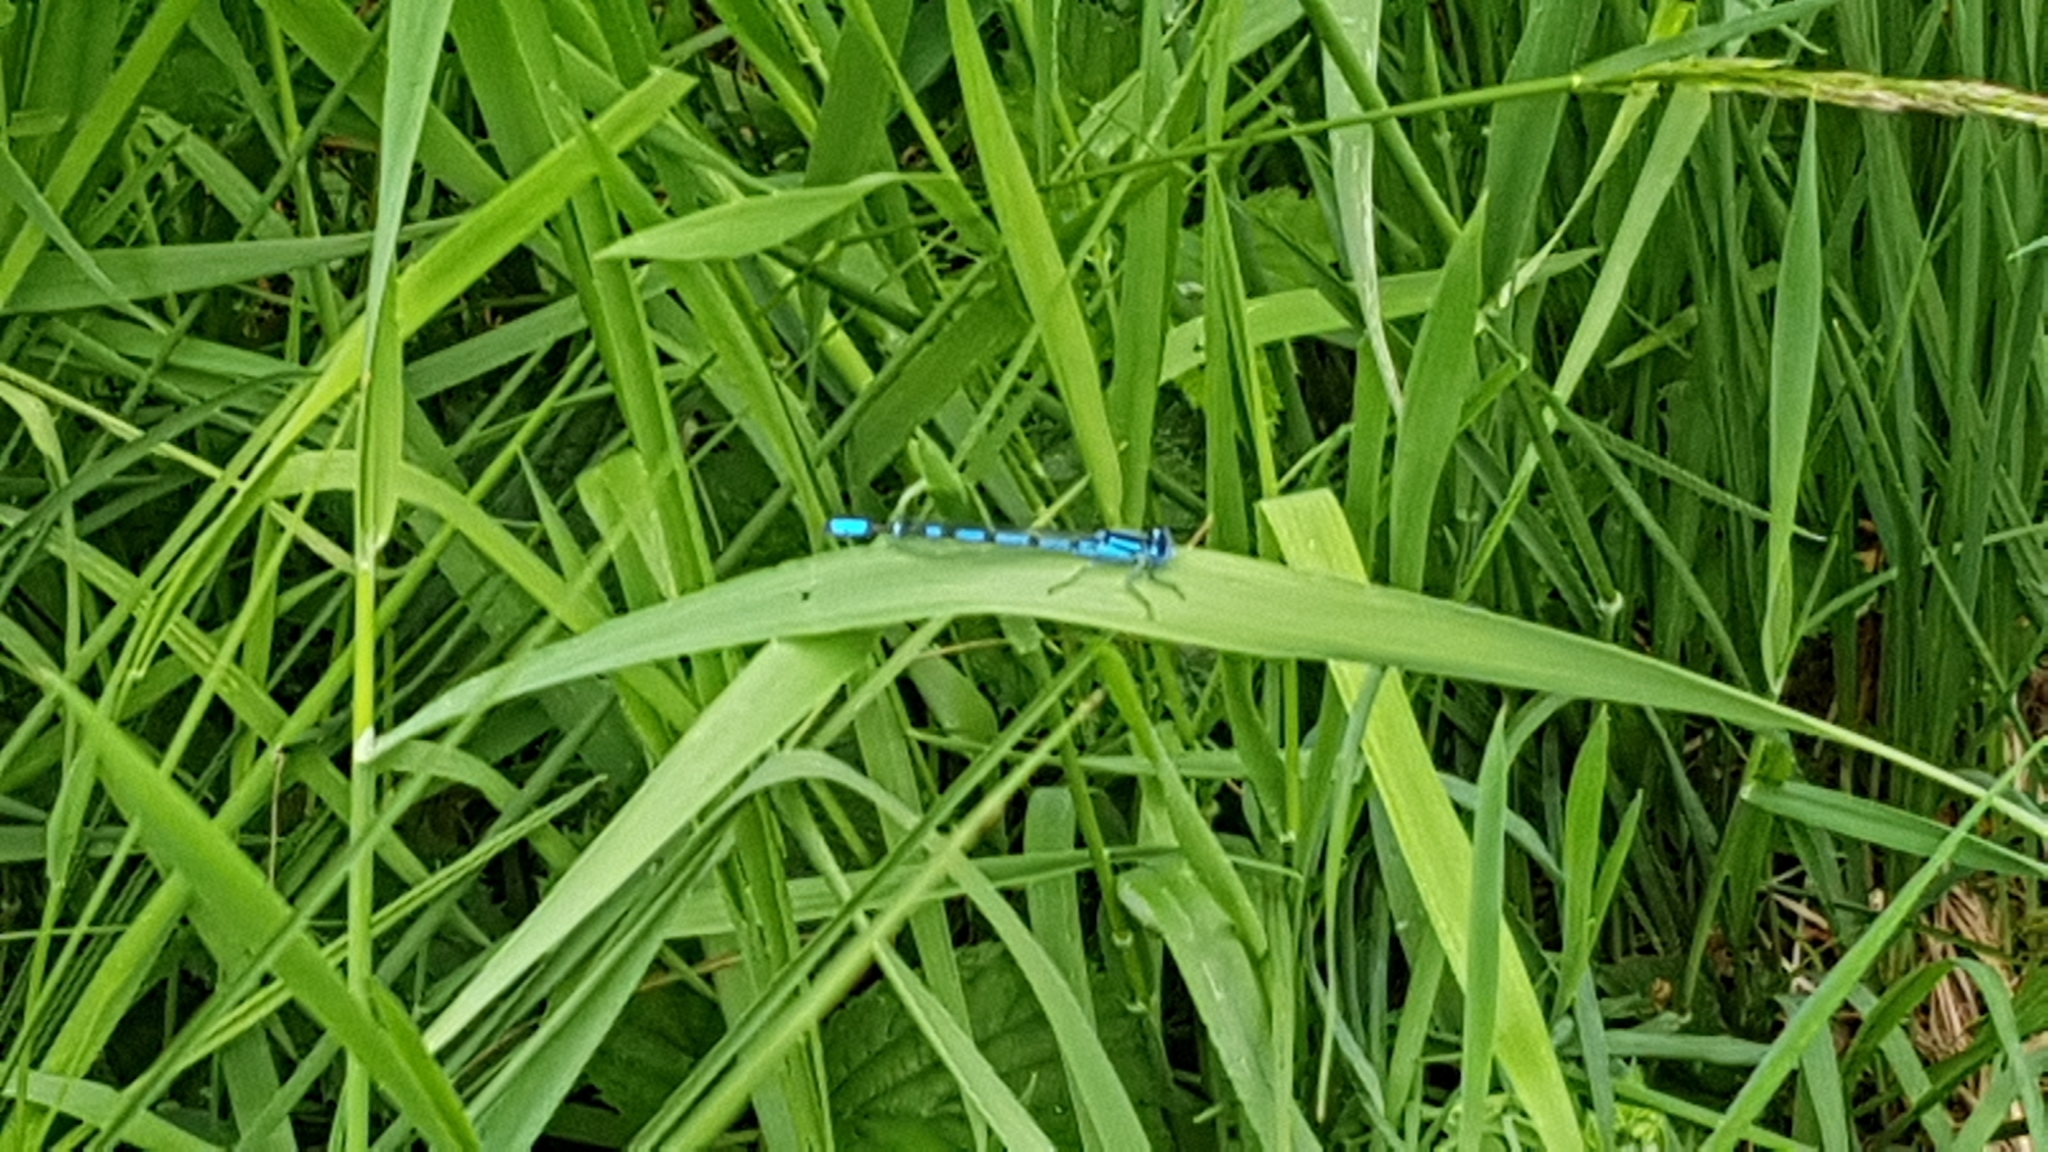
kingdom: Animalia
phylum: Arthropoda
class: Insecta
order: Odonata
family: Coenagrionidae
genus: Enallagma
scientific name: Enallagma cyathigerum
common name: Common blue damselfly
